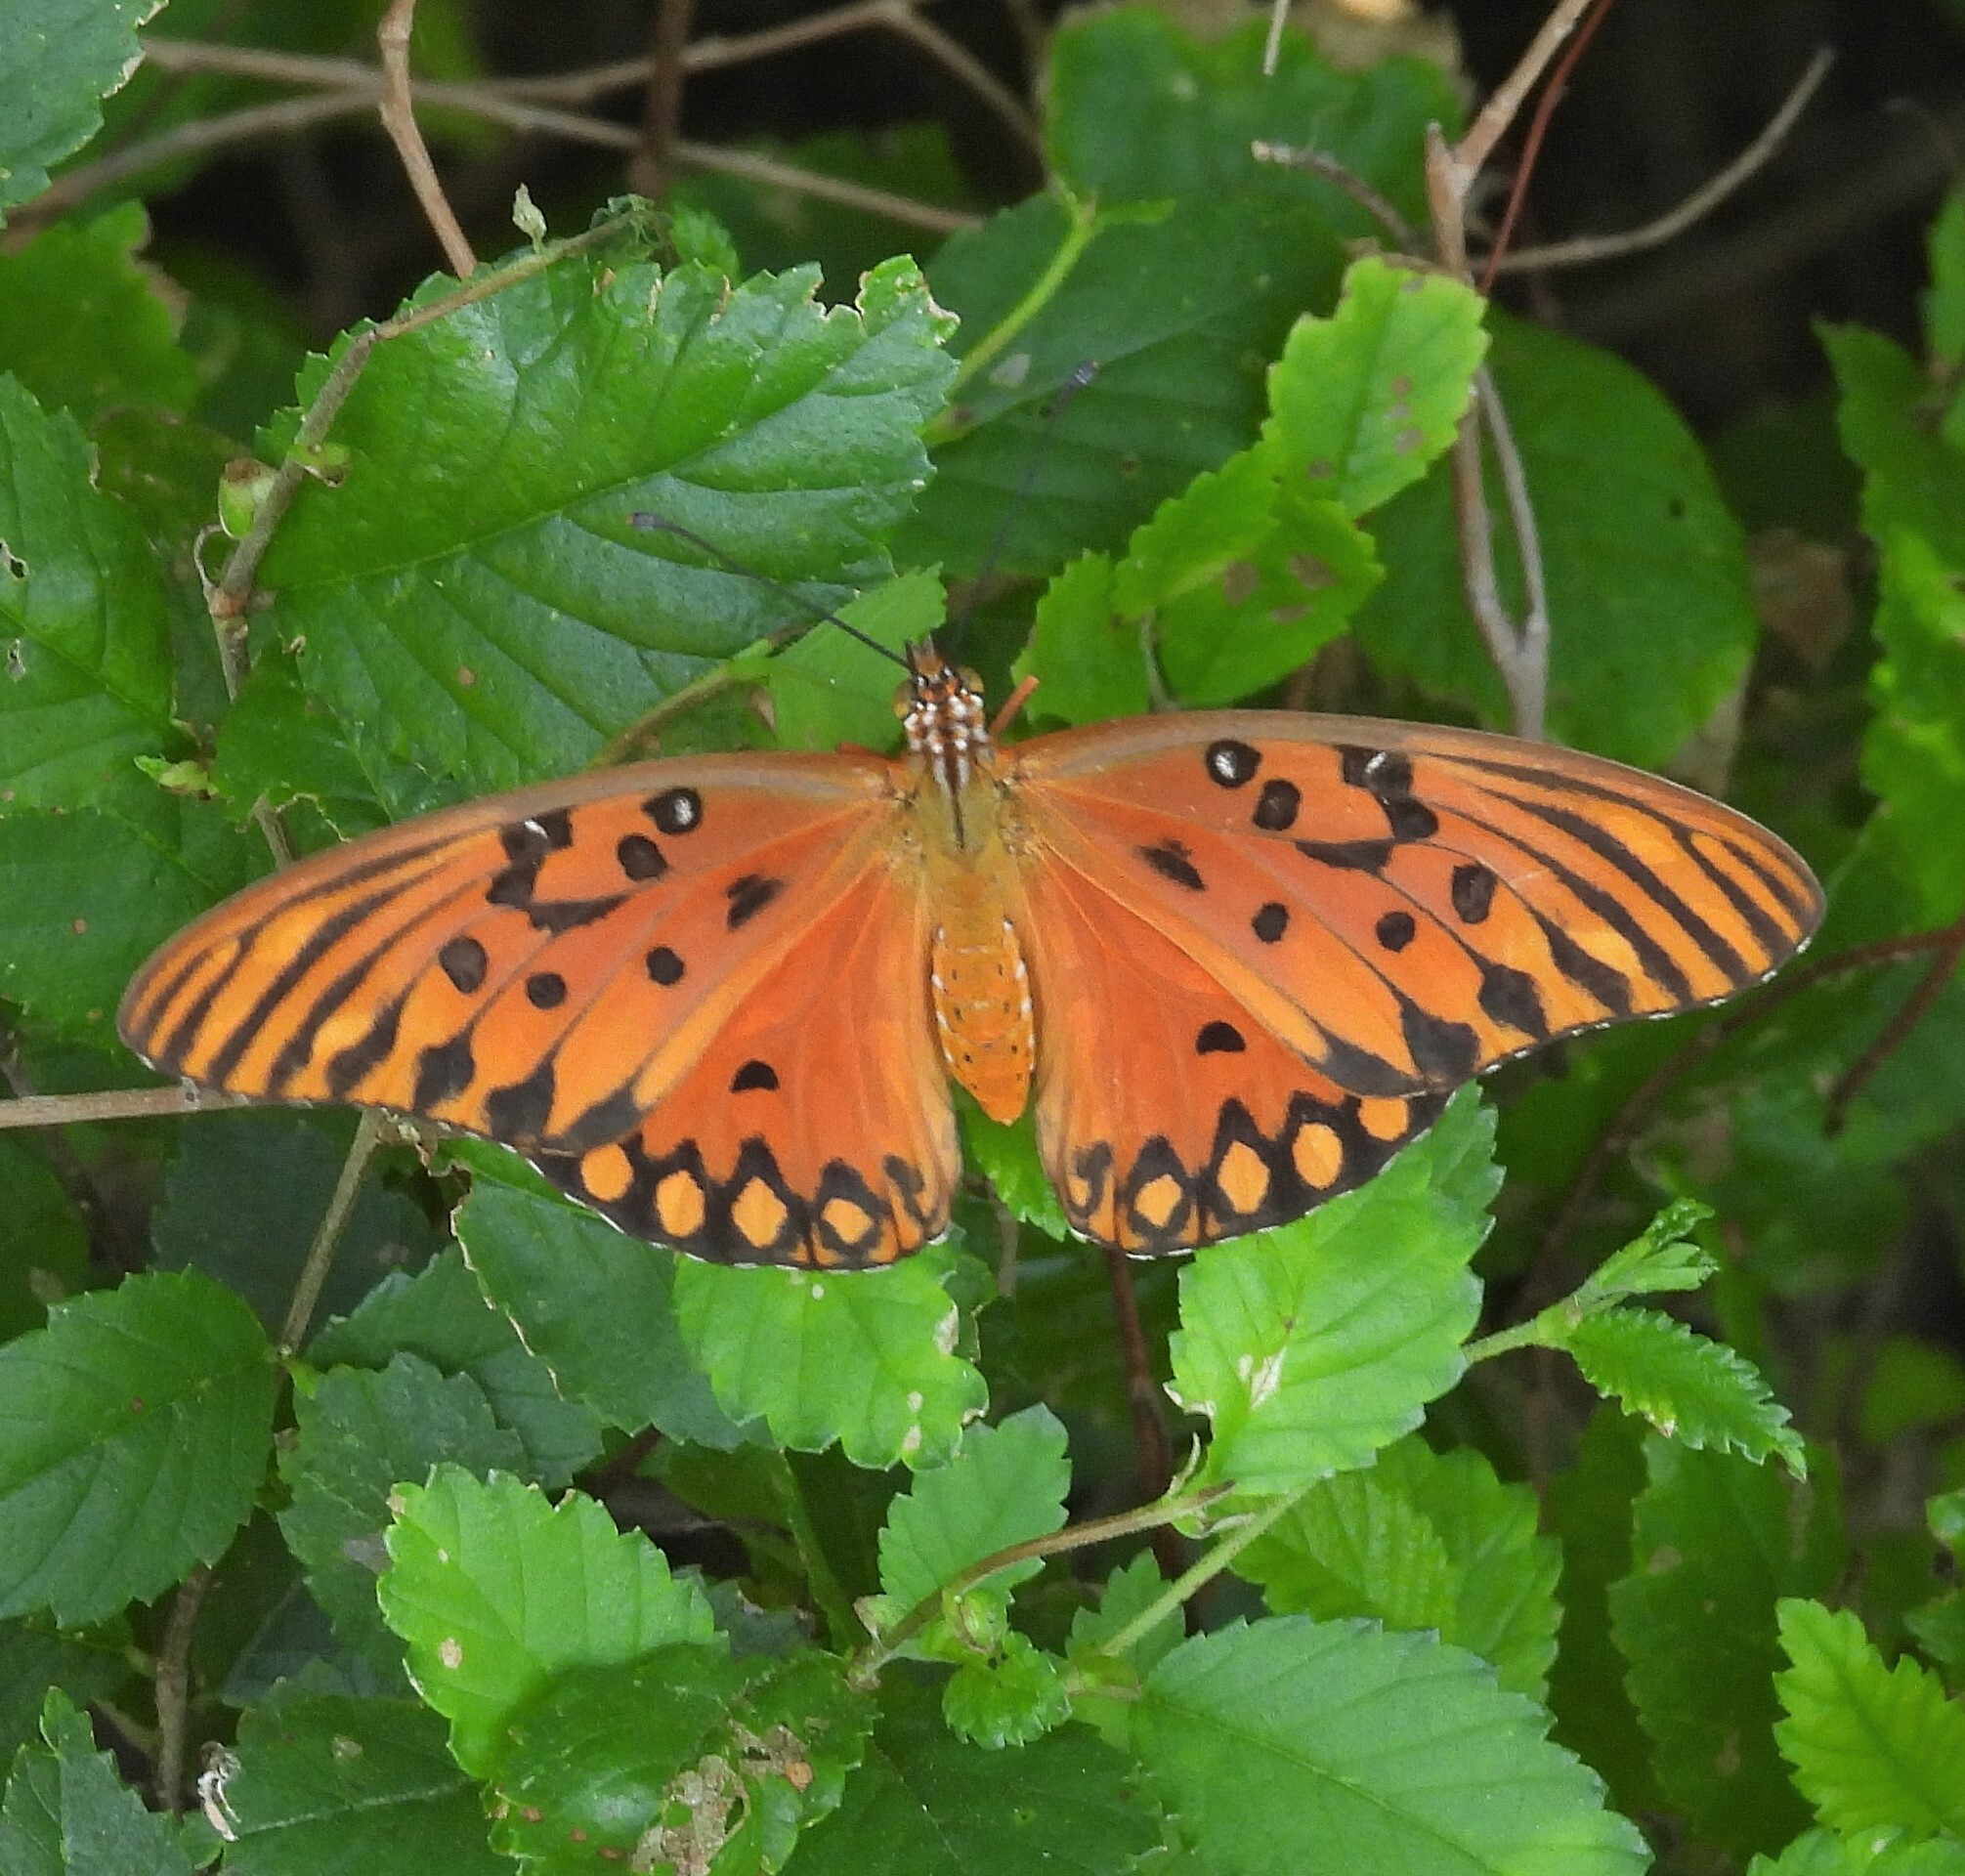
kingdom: Animalia
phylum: Arthropoda
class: Insecta
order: Lepidoptera
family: Nymphalidae
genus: Dione
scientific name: Dione vanillae
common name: Gulf fritillary
